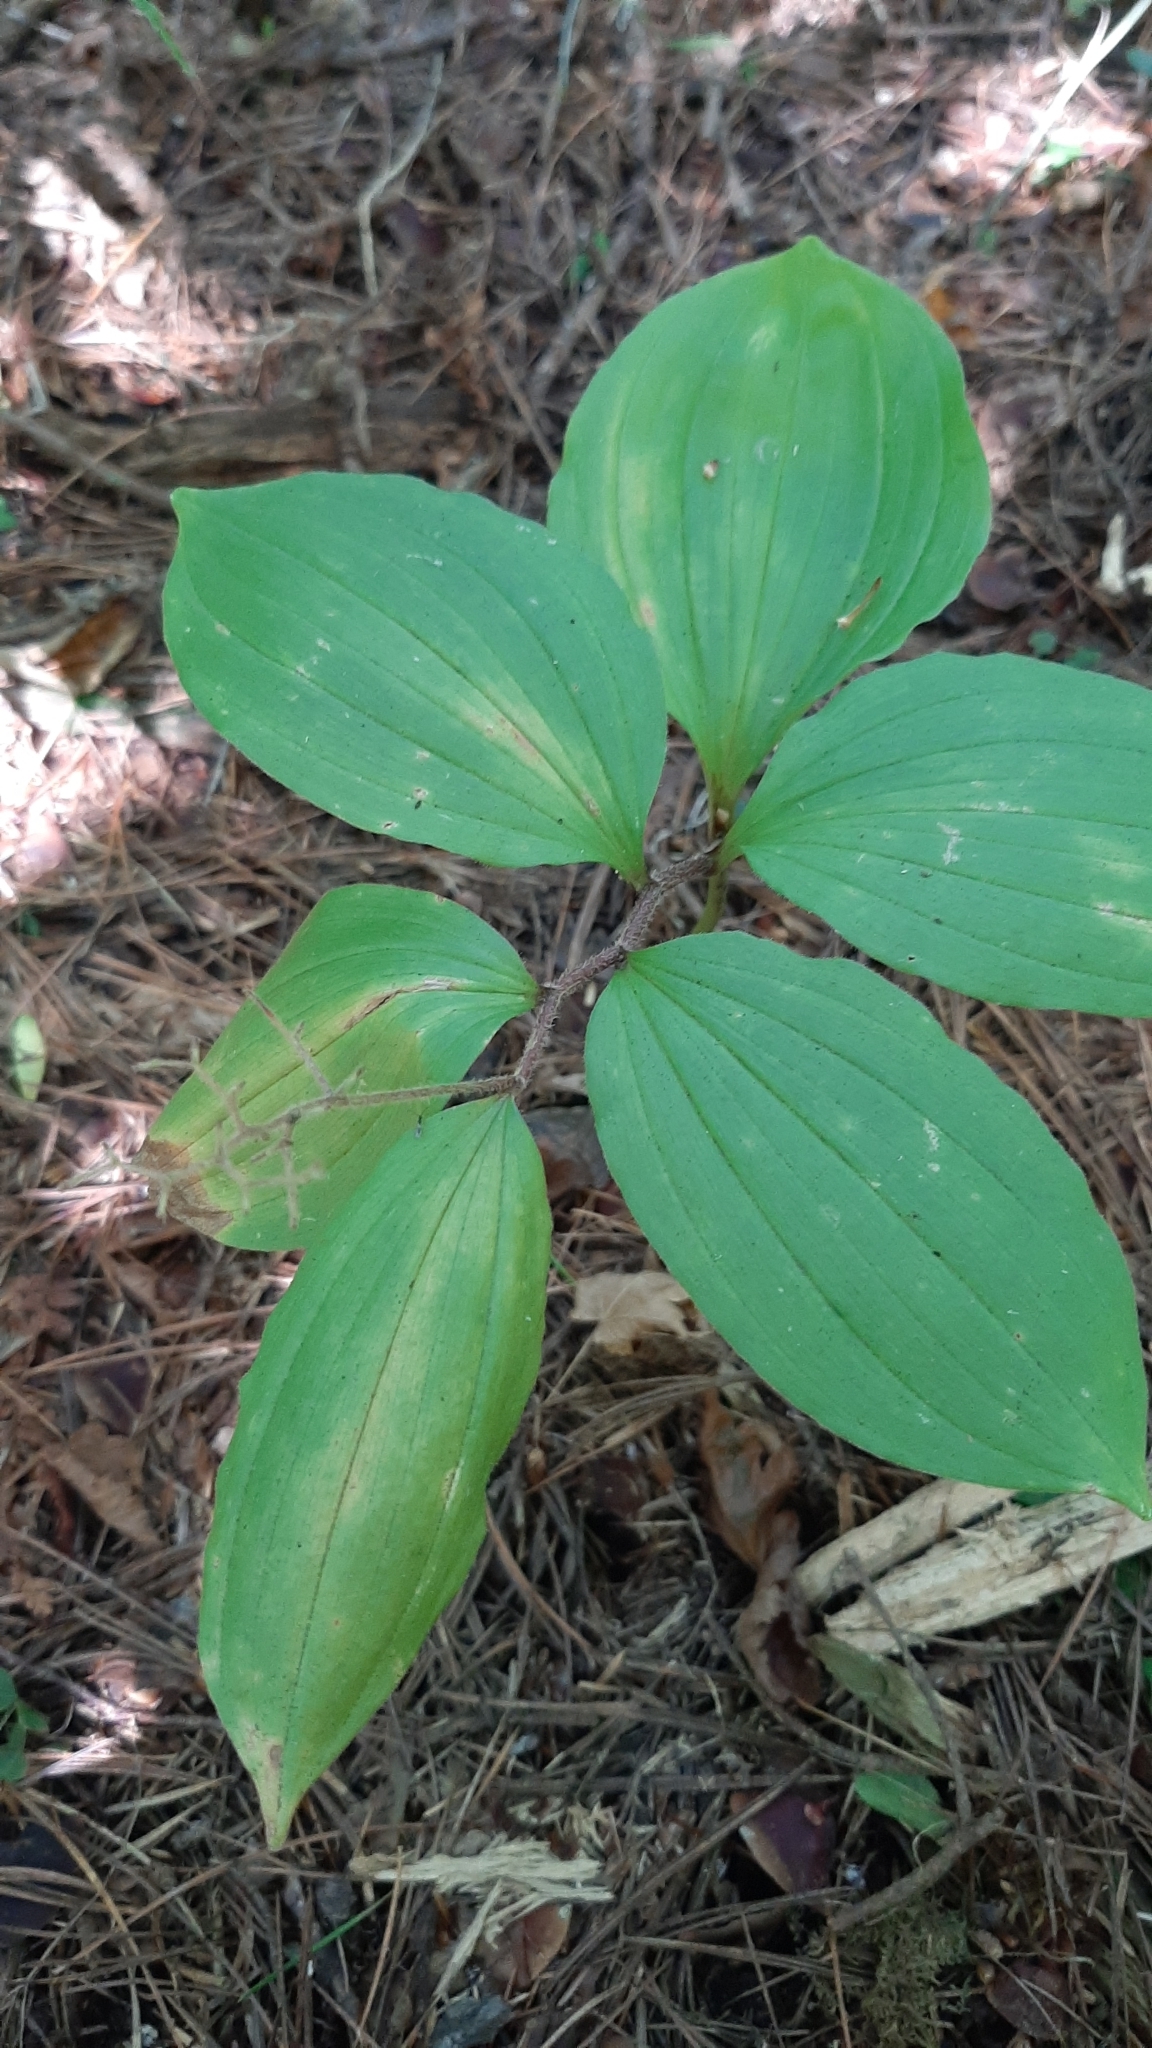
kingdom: Plantae
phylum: Tracheophyta
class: Liliopsida
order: Asparagales
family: Asparagaceae
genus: Maianthemum
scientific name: Maianthemum japonicum
